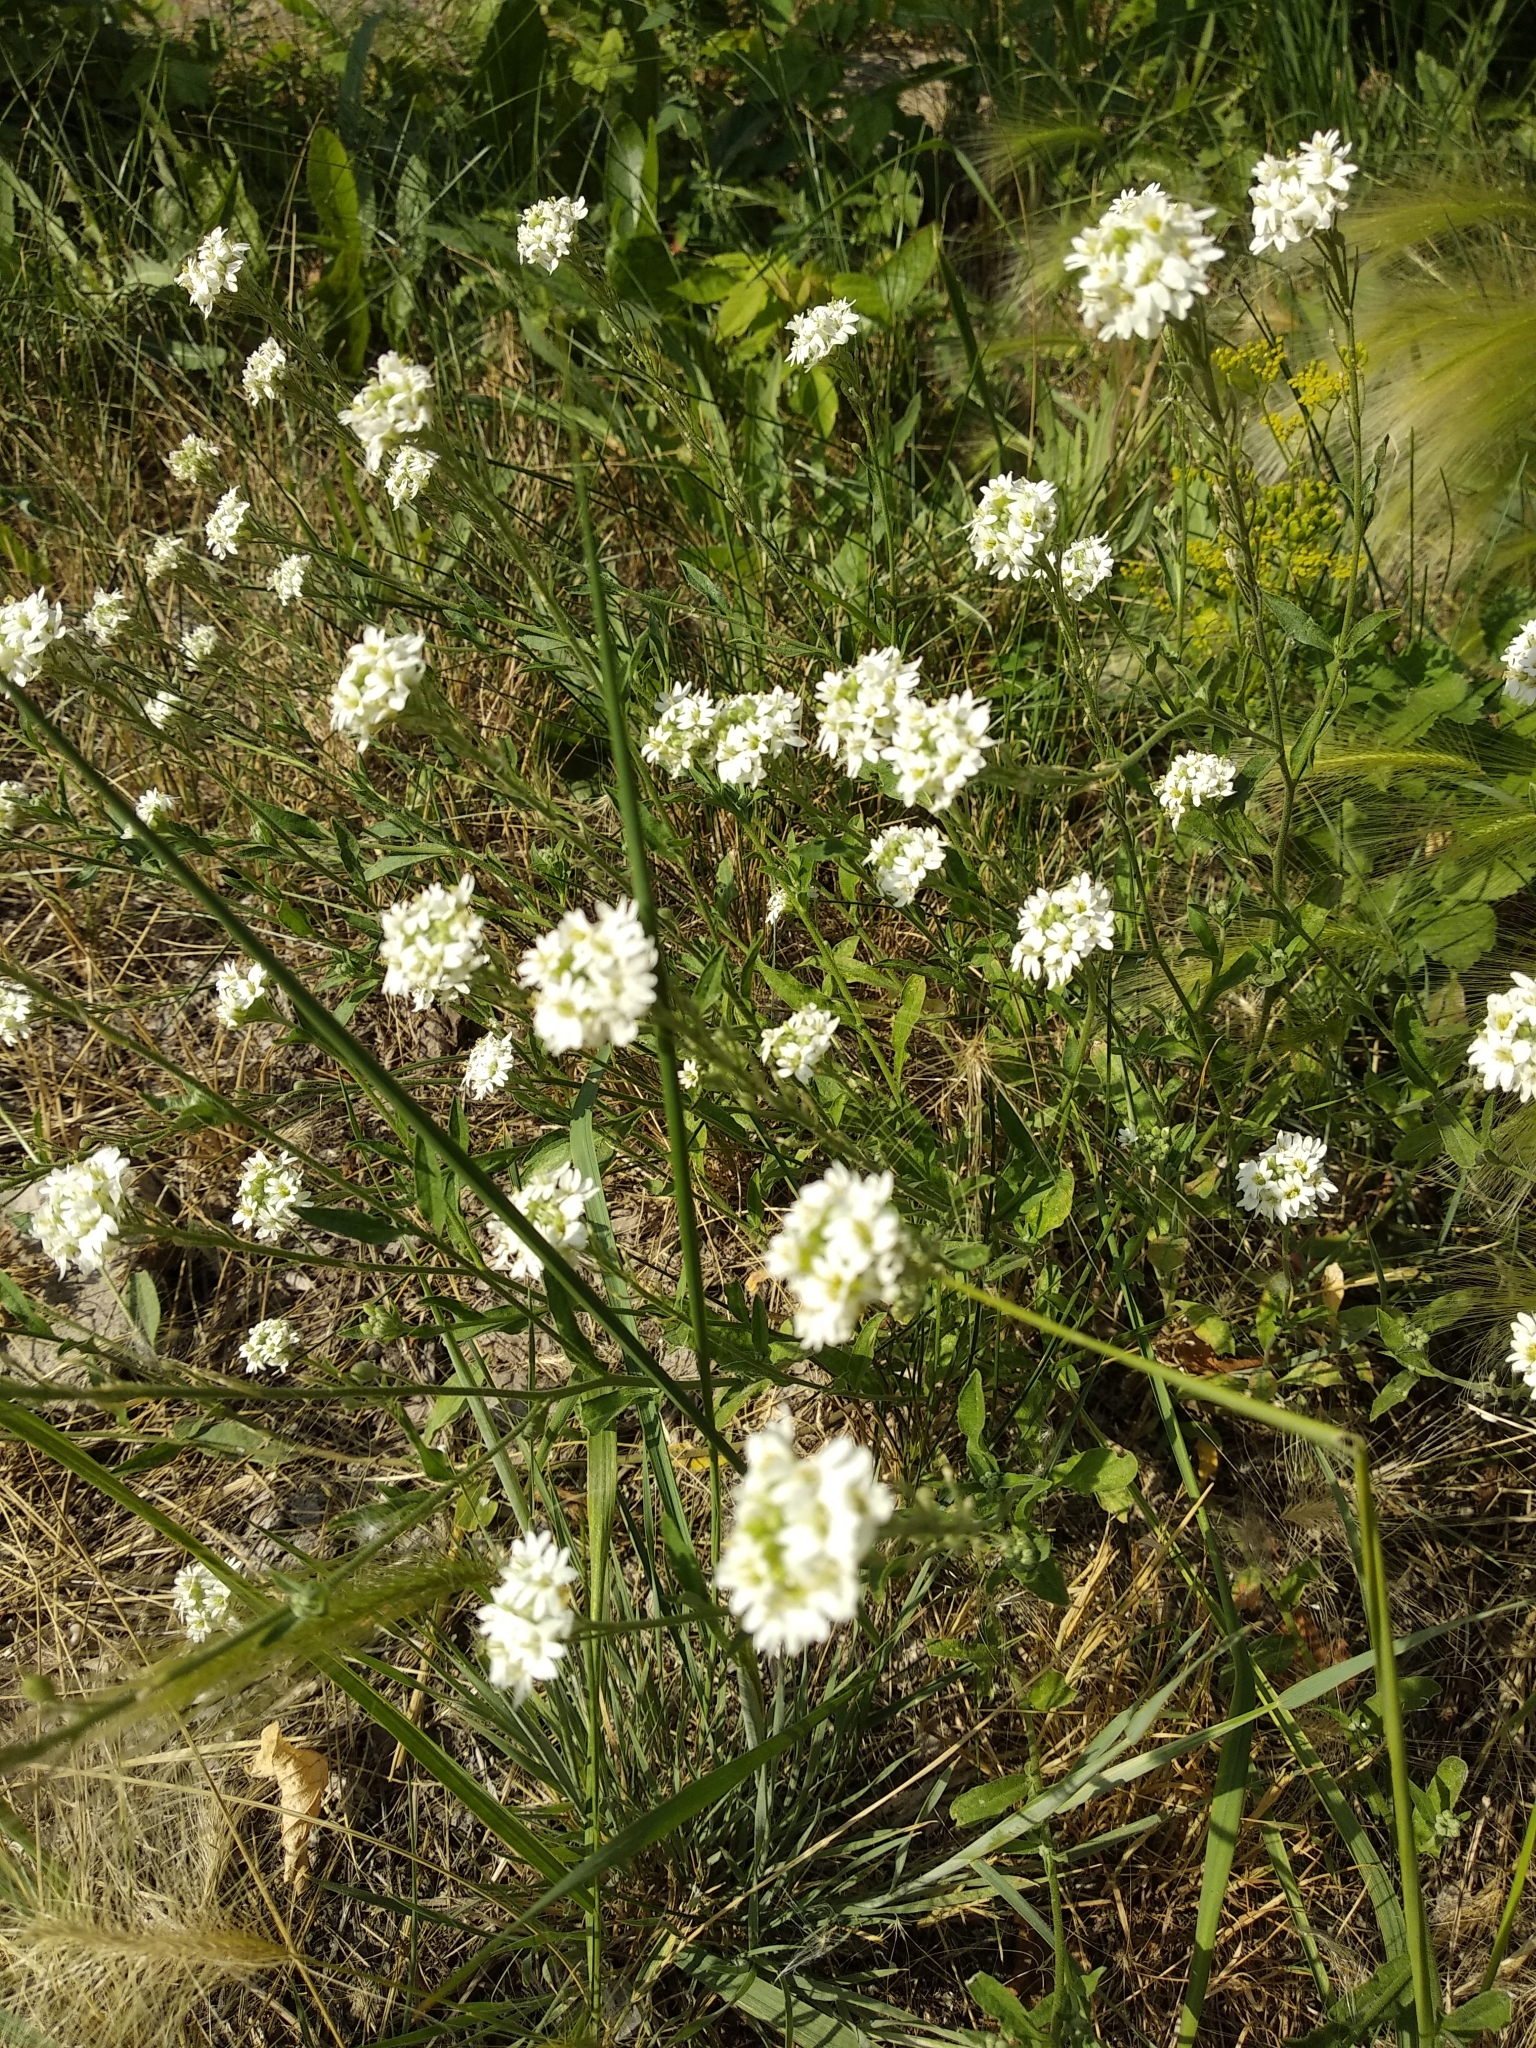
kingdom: Plantae
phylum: Tracheophyta
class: Magnoliopsida
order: Brassicales
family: Brassicaceae
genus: Berteroa
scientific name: Berteroa incana
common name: Hoary alison
